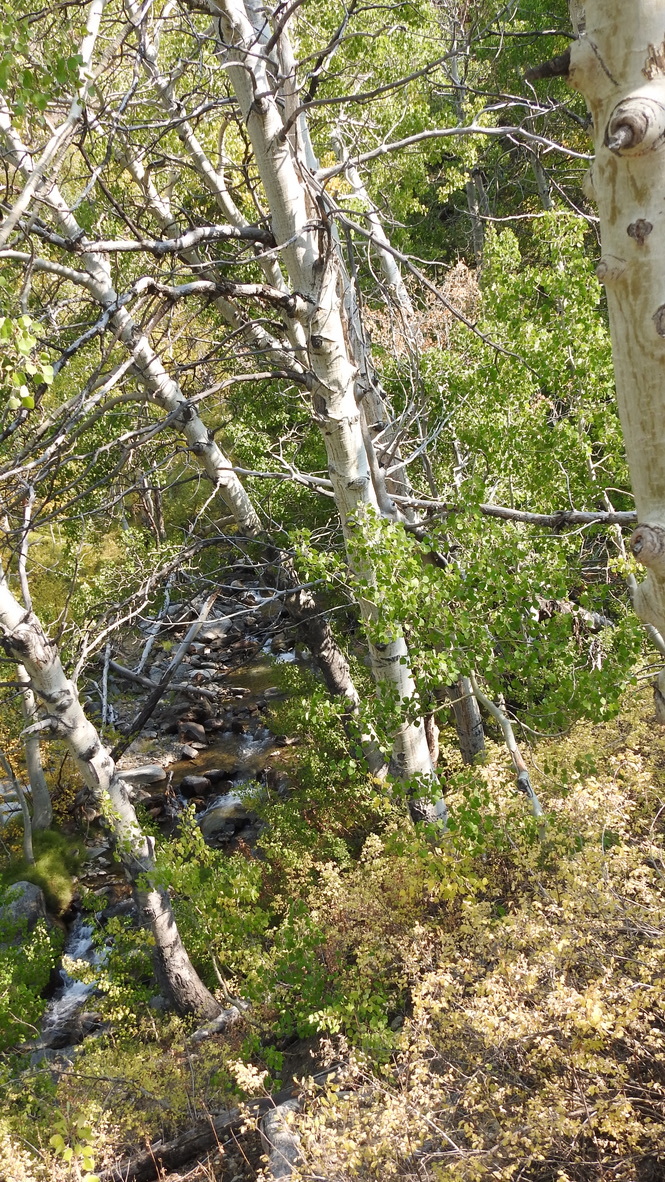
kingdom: Plantae
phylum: Tracheophyta
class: Magnoliopsida
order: Malpighiales
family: Salicaceae
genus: Populus
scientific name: Populus tremuloides
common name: Quaking aspen
